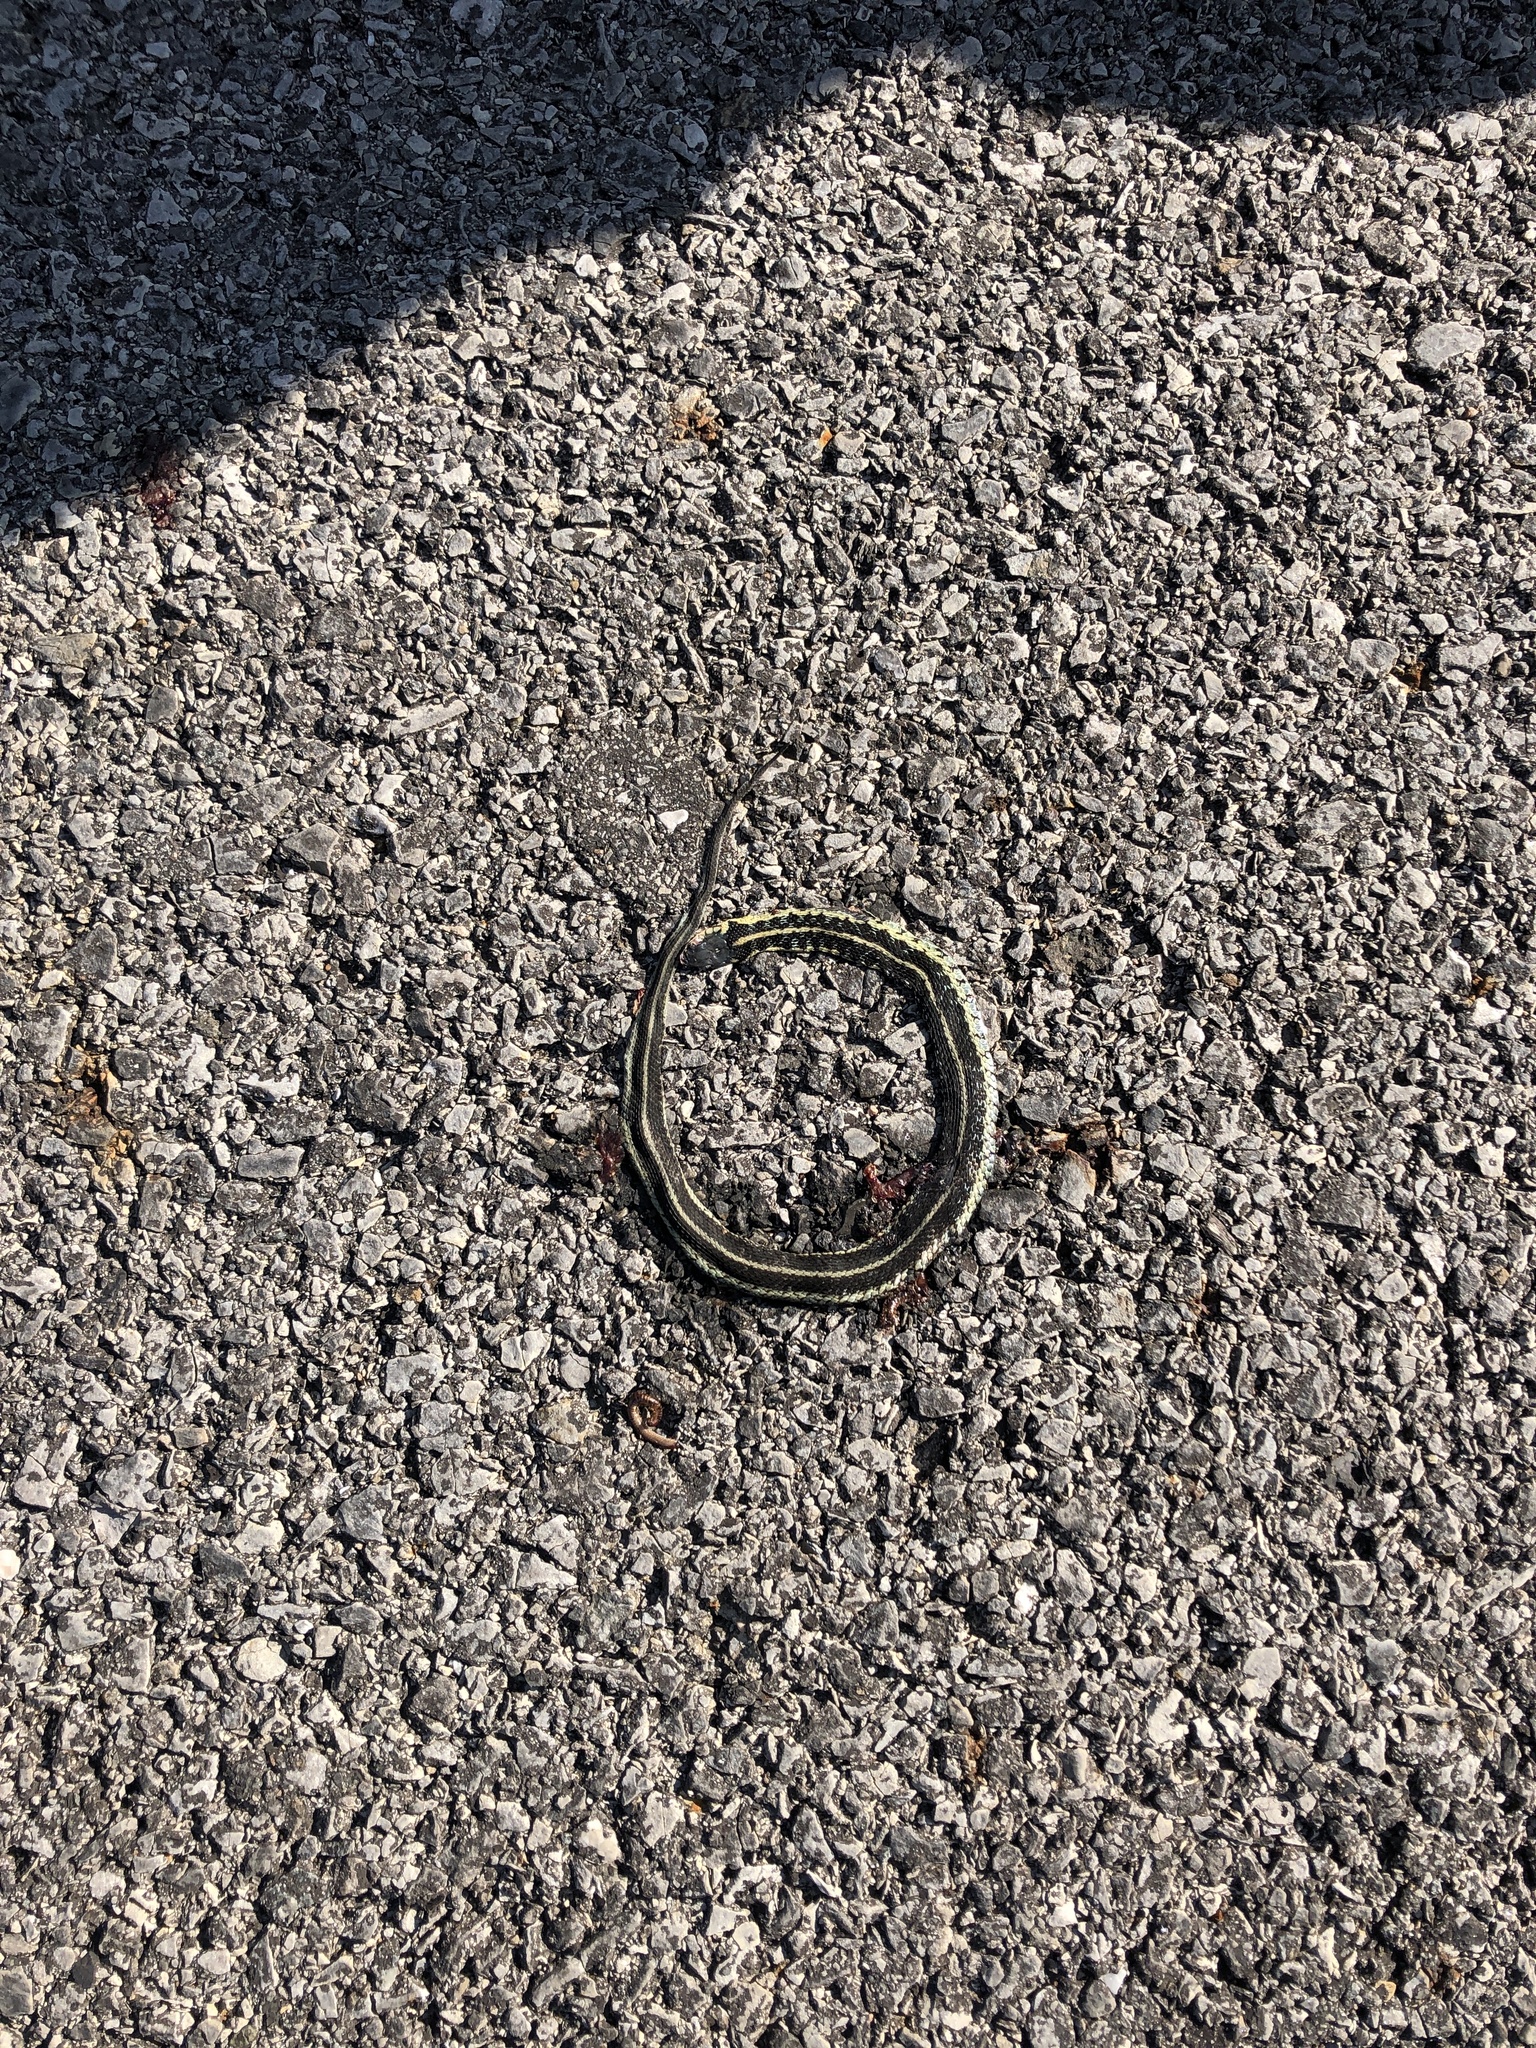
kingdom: Animalia
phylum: Chordata
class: Squamata
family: Colubridae
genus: Thamnophis
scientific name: Thamnophis sirtalis
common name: Common garter snake
